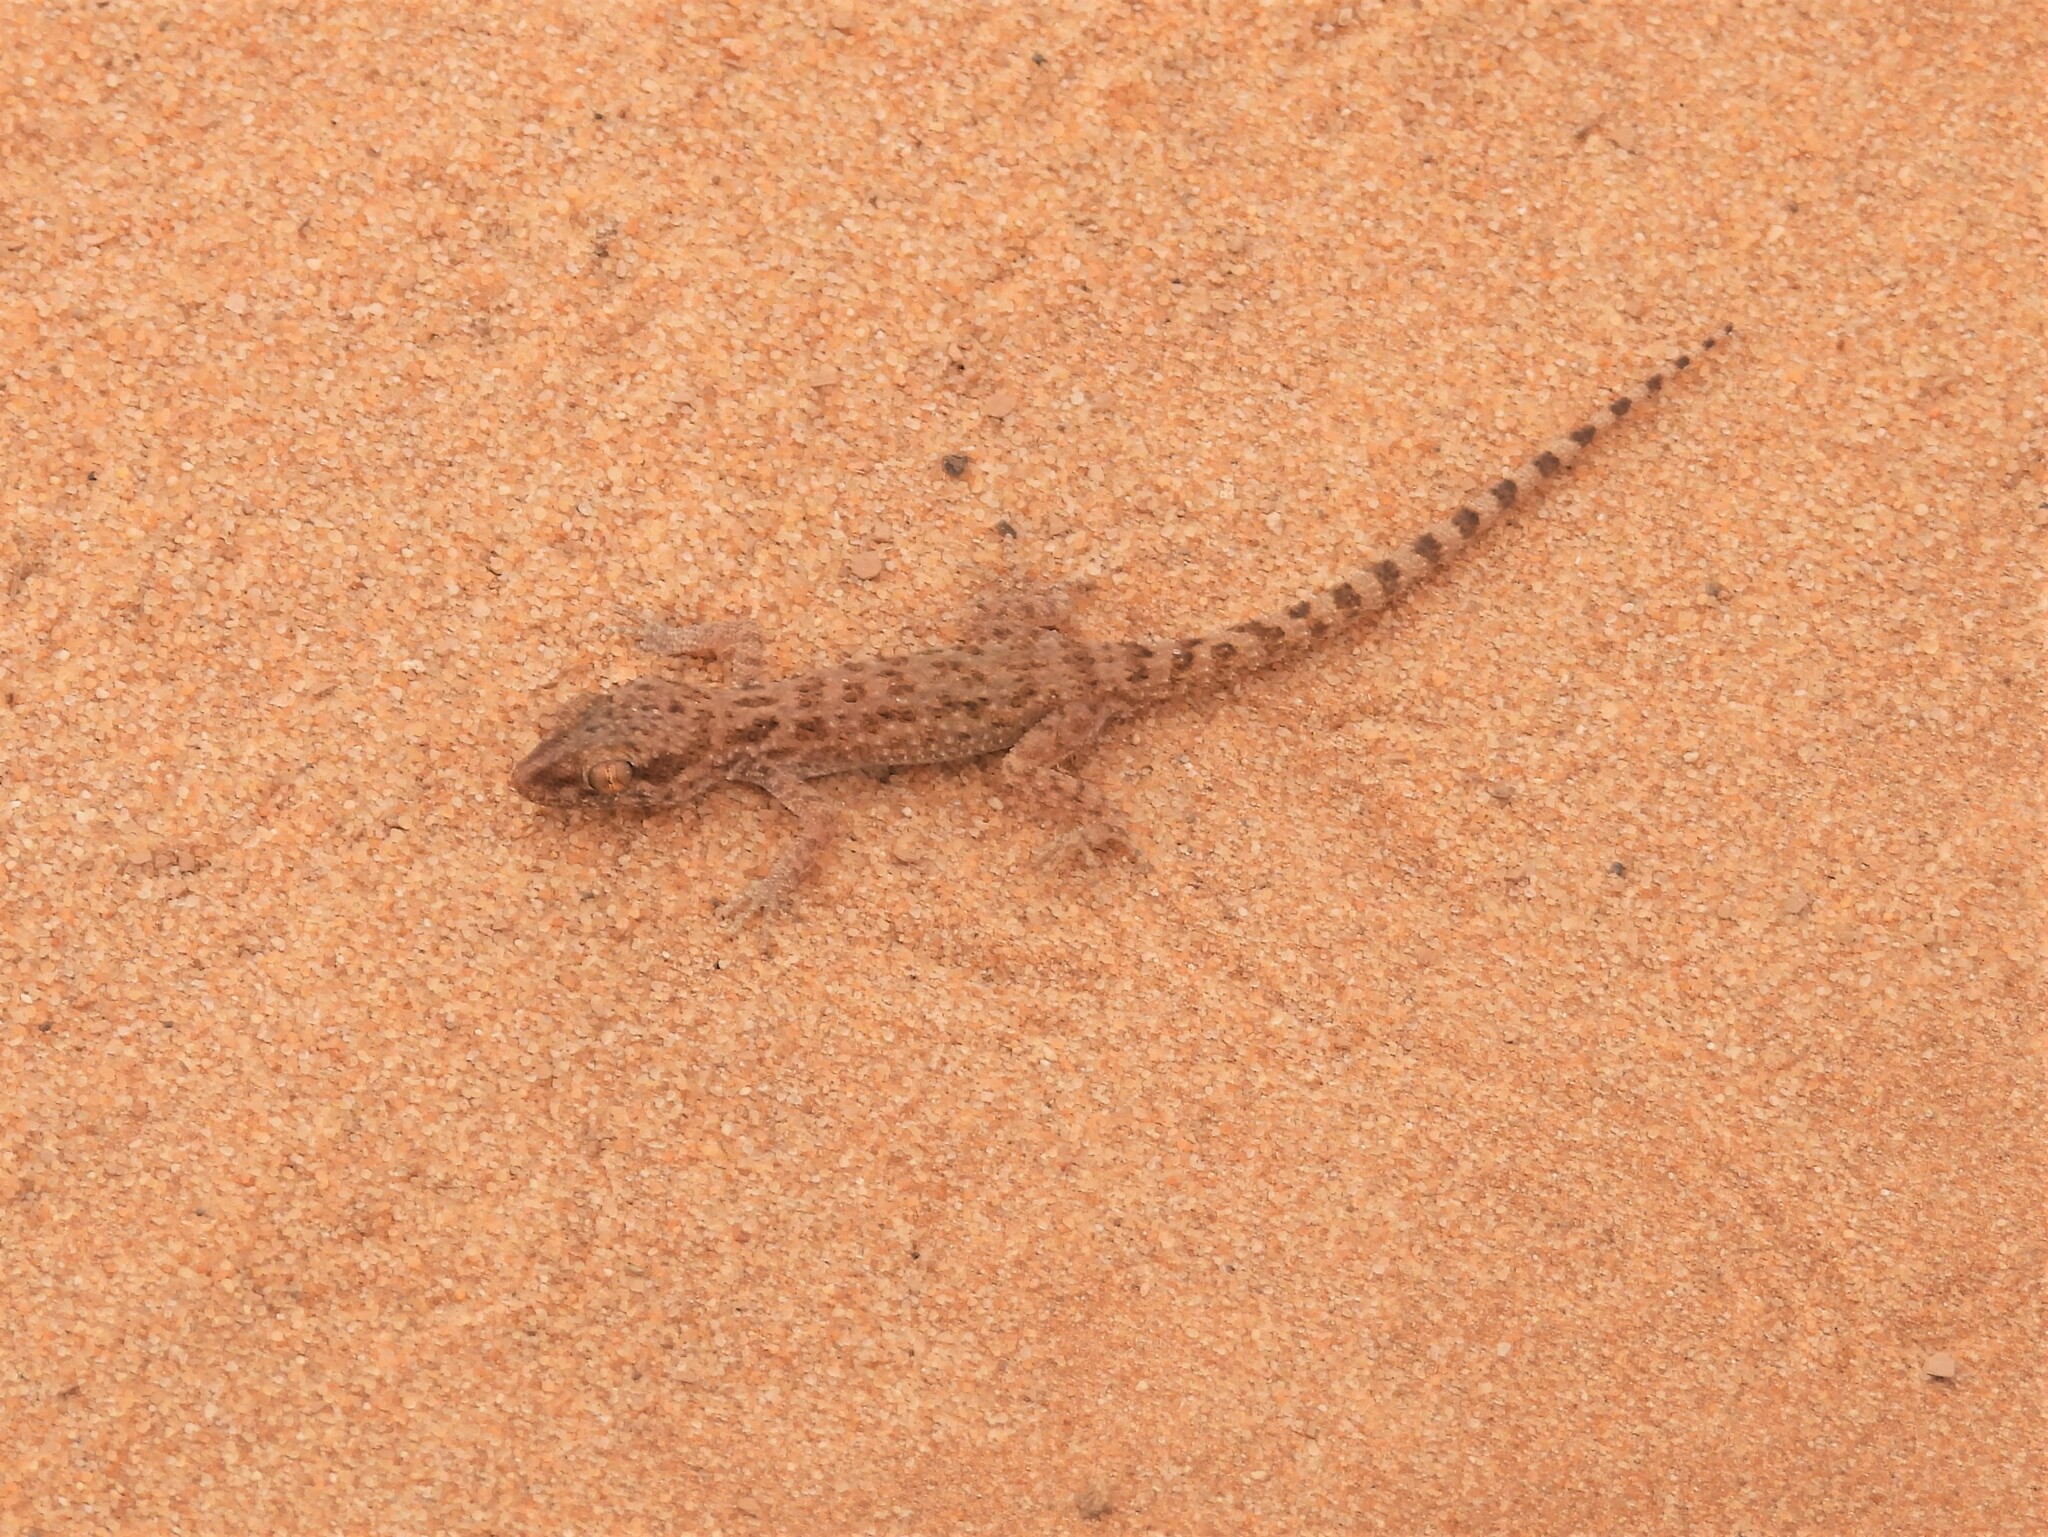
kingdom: Animalia
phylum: Chordata
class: Squamata
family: Gekkonidae
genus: Bunopus
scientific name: Bunopus tuberculatus
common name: Southern tuberculated gecko
